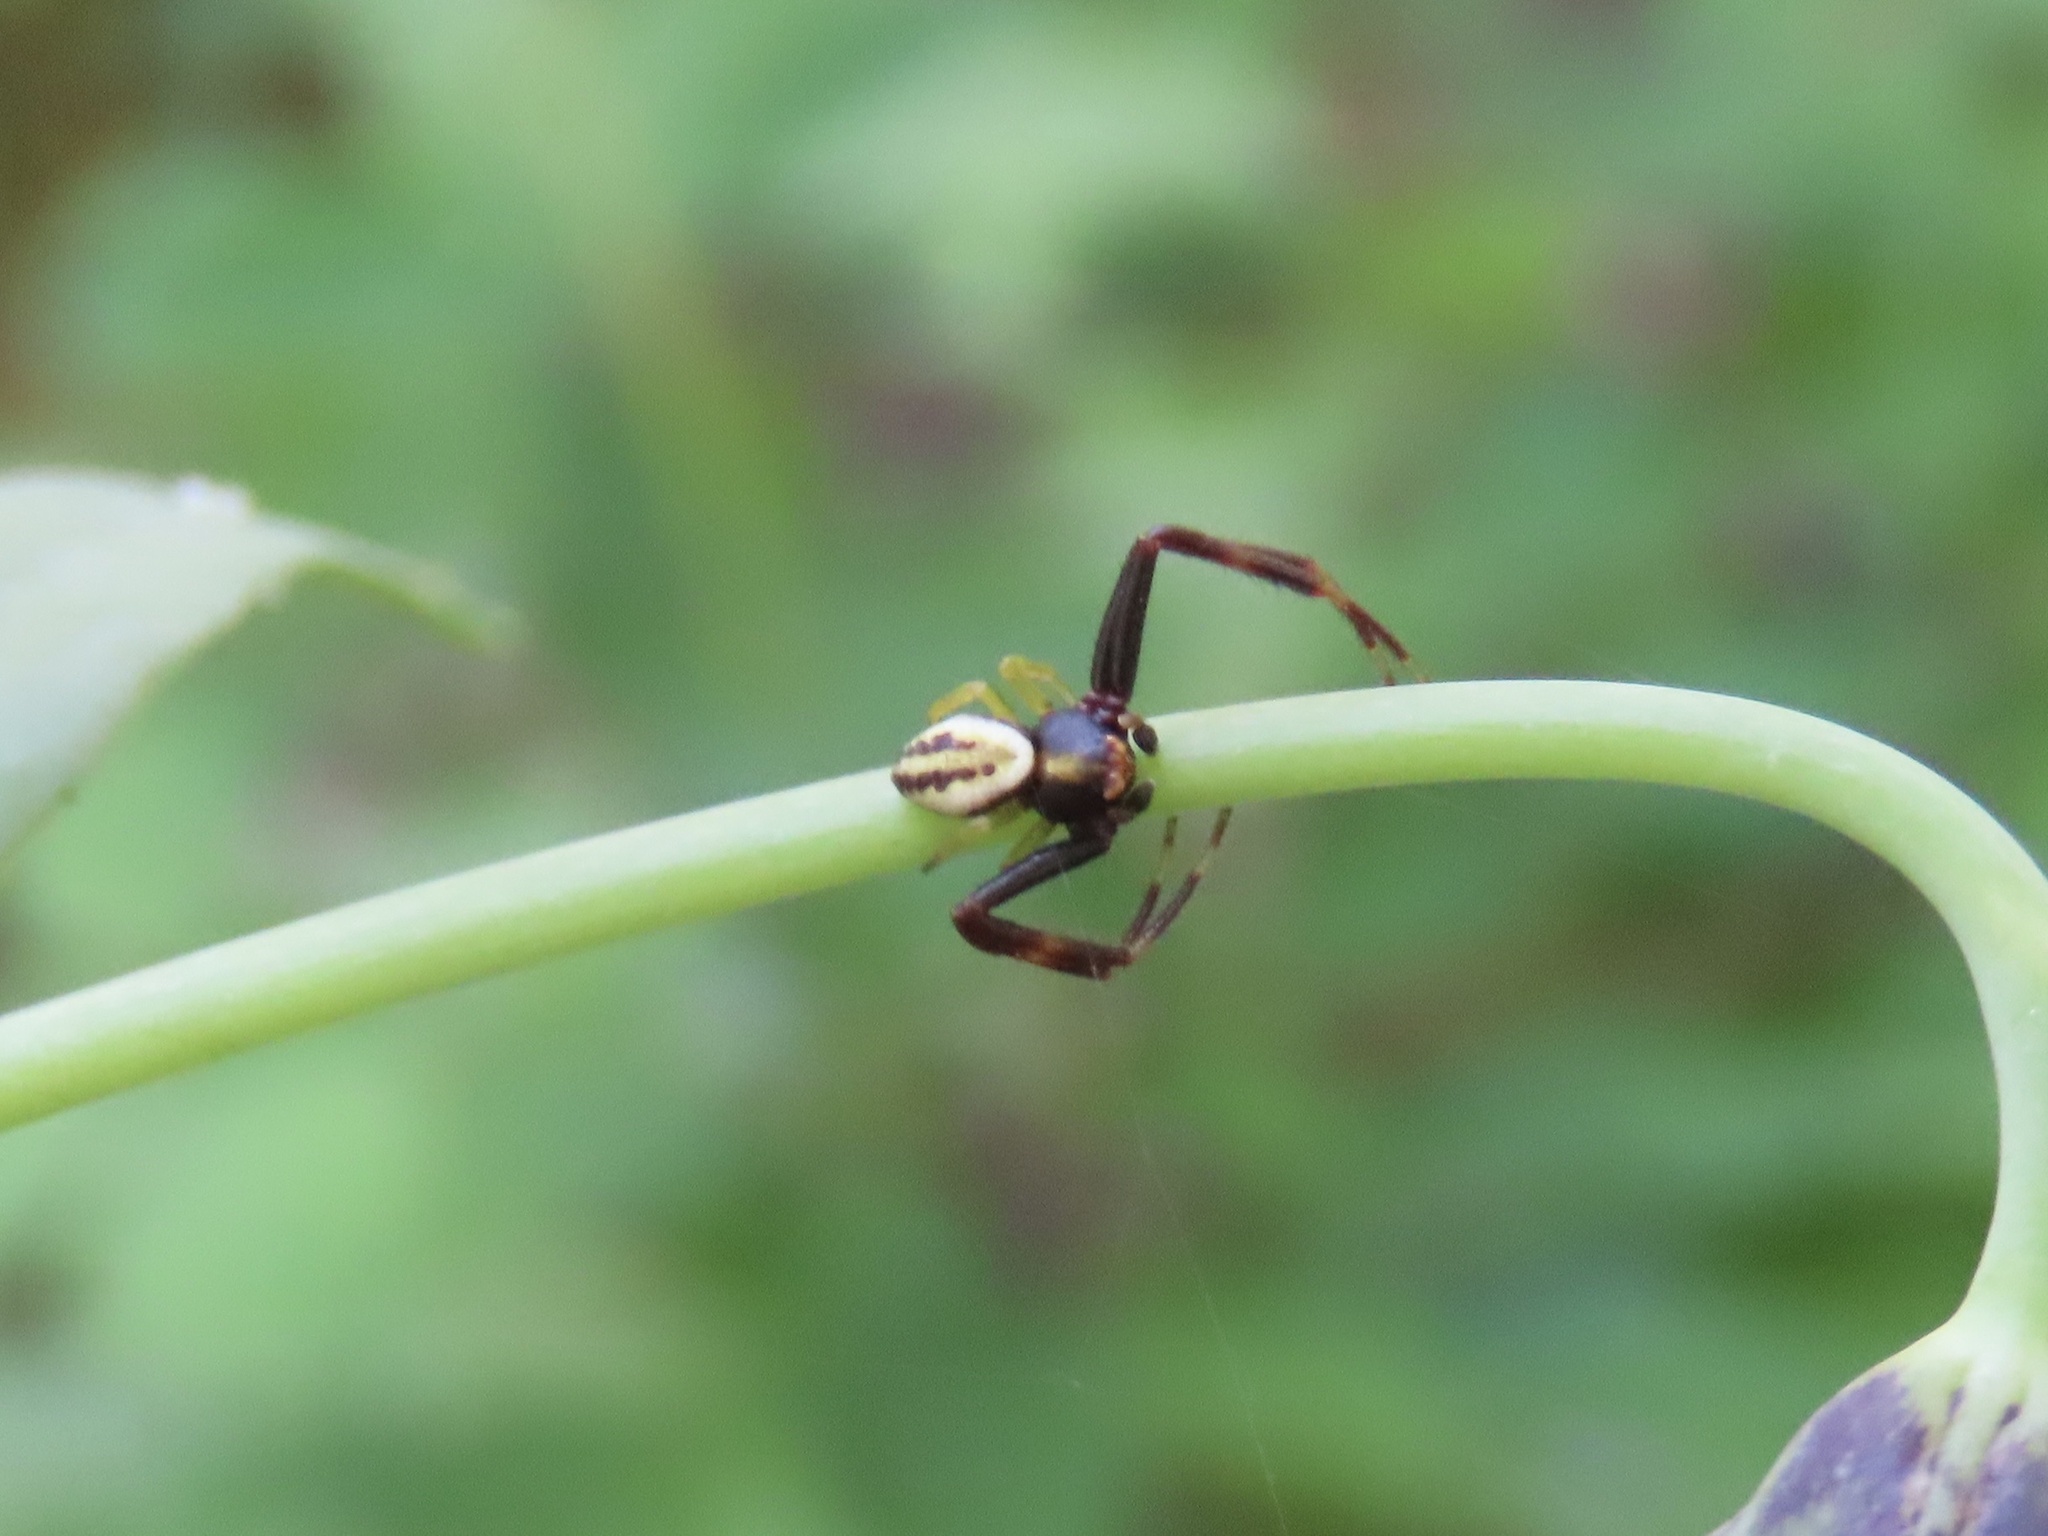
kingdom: Animalia
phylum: Arthropoda
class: Arachnida
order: Araneae
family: Thomisidae
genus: Misumena
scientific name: Misumena vatia
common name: Goldenrod crab spider
